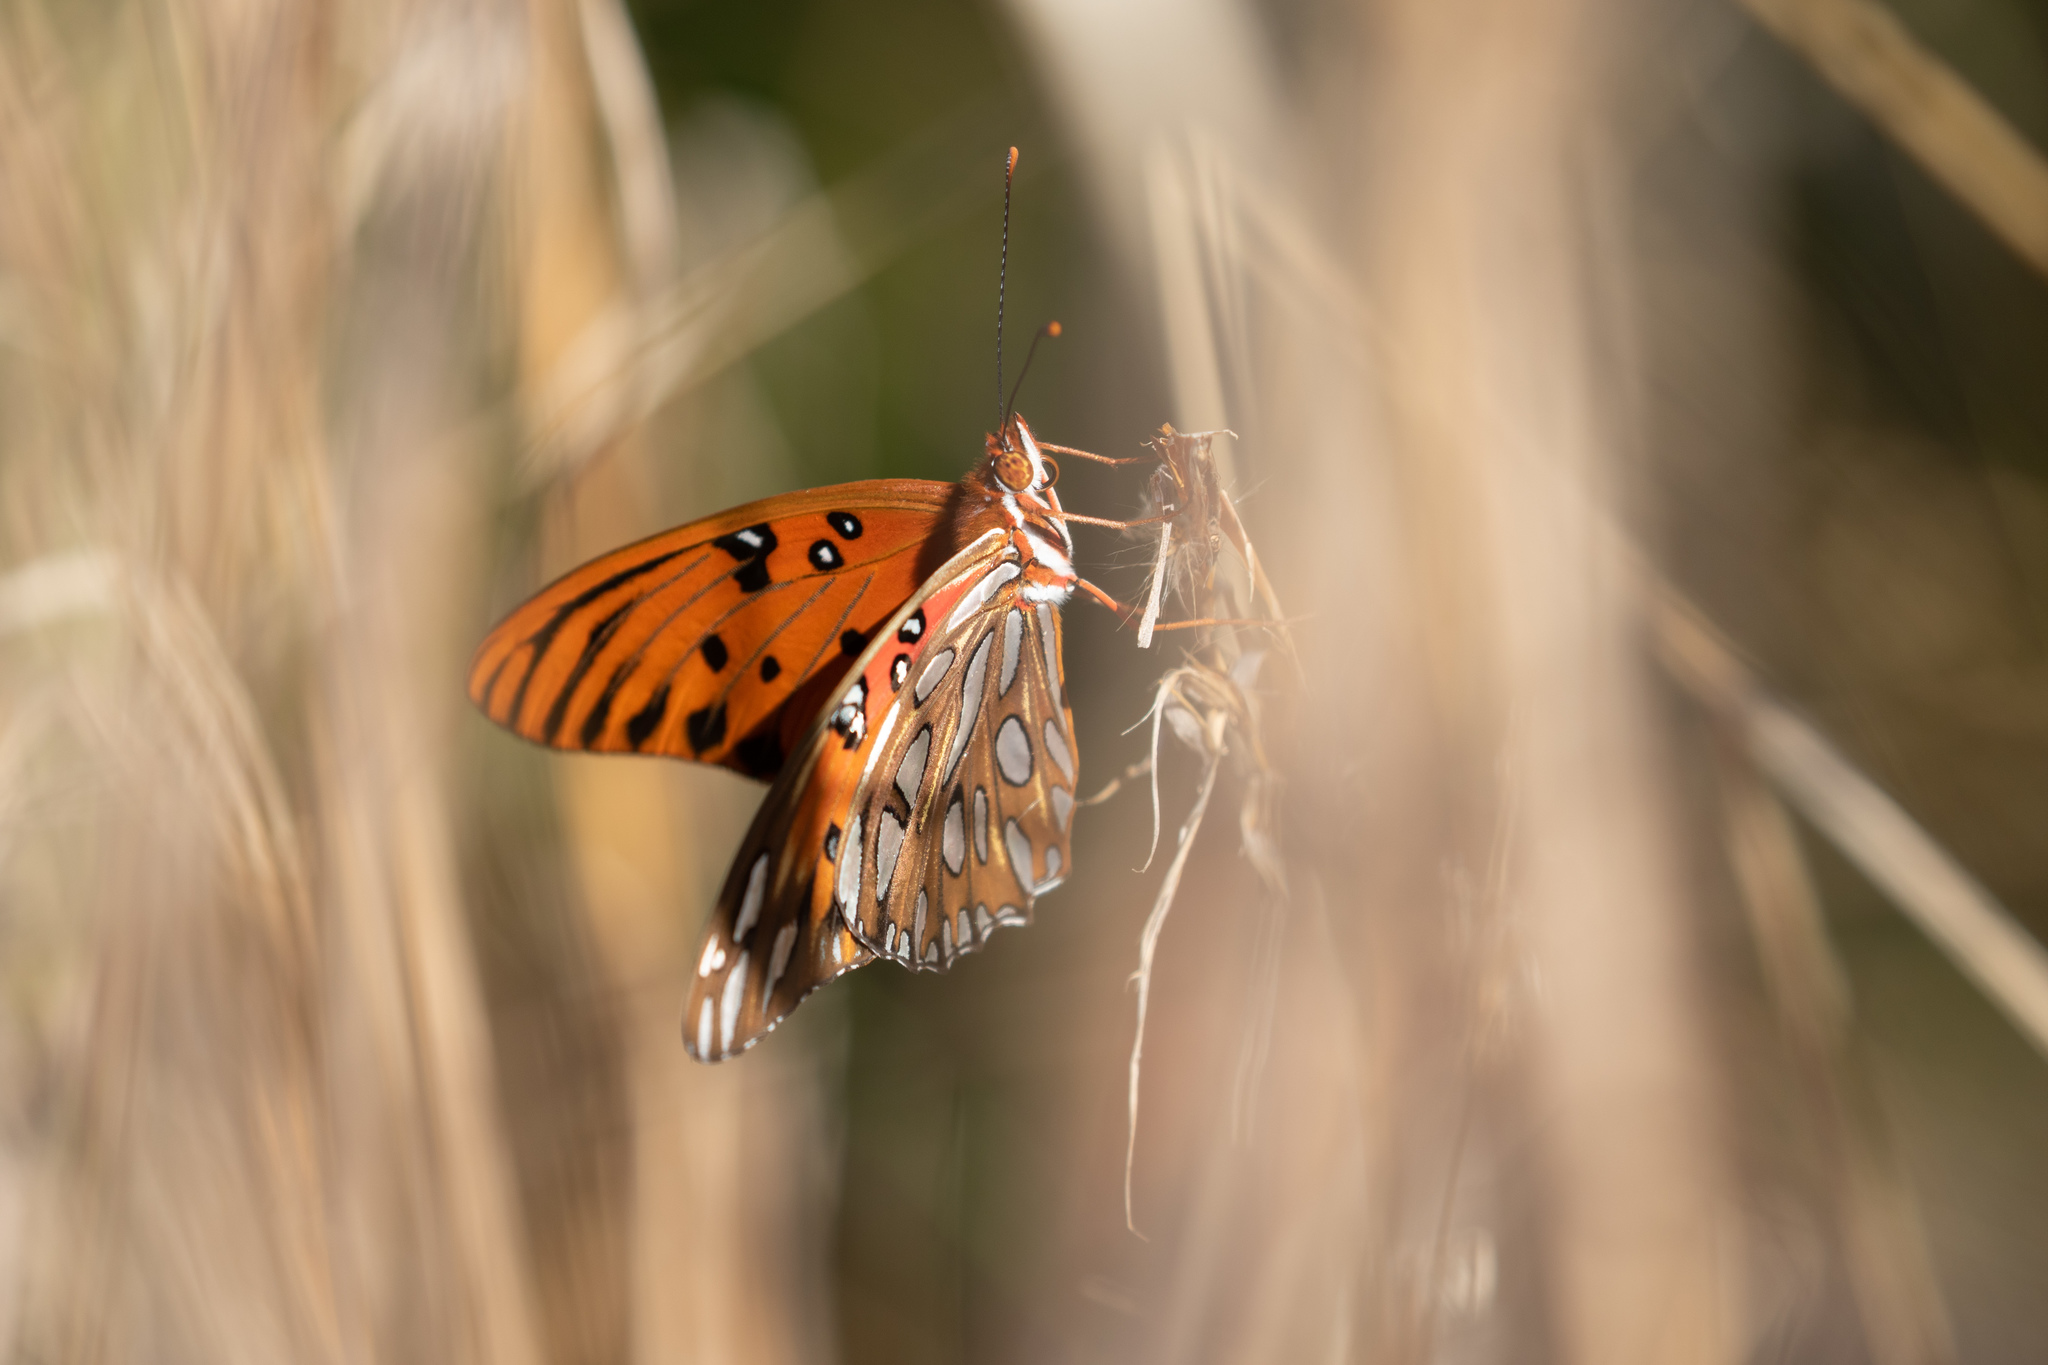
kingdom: Animalia
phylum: Arthropoda
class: Insecta
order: Lepidoptera
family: Nymphalidae
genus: Dione
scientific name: Dione vanillae
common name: Gulf fritillary
